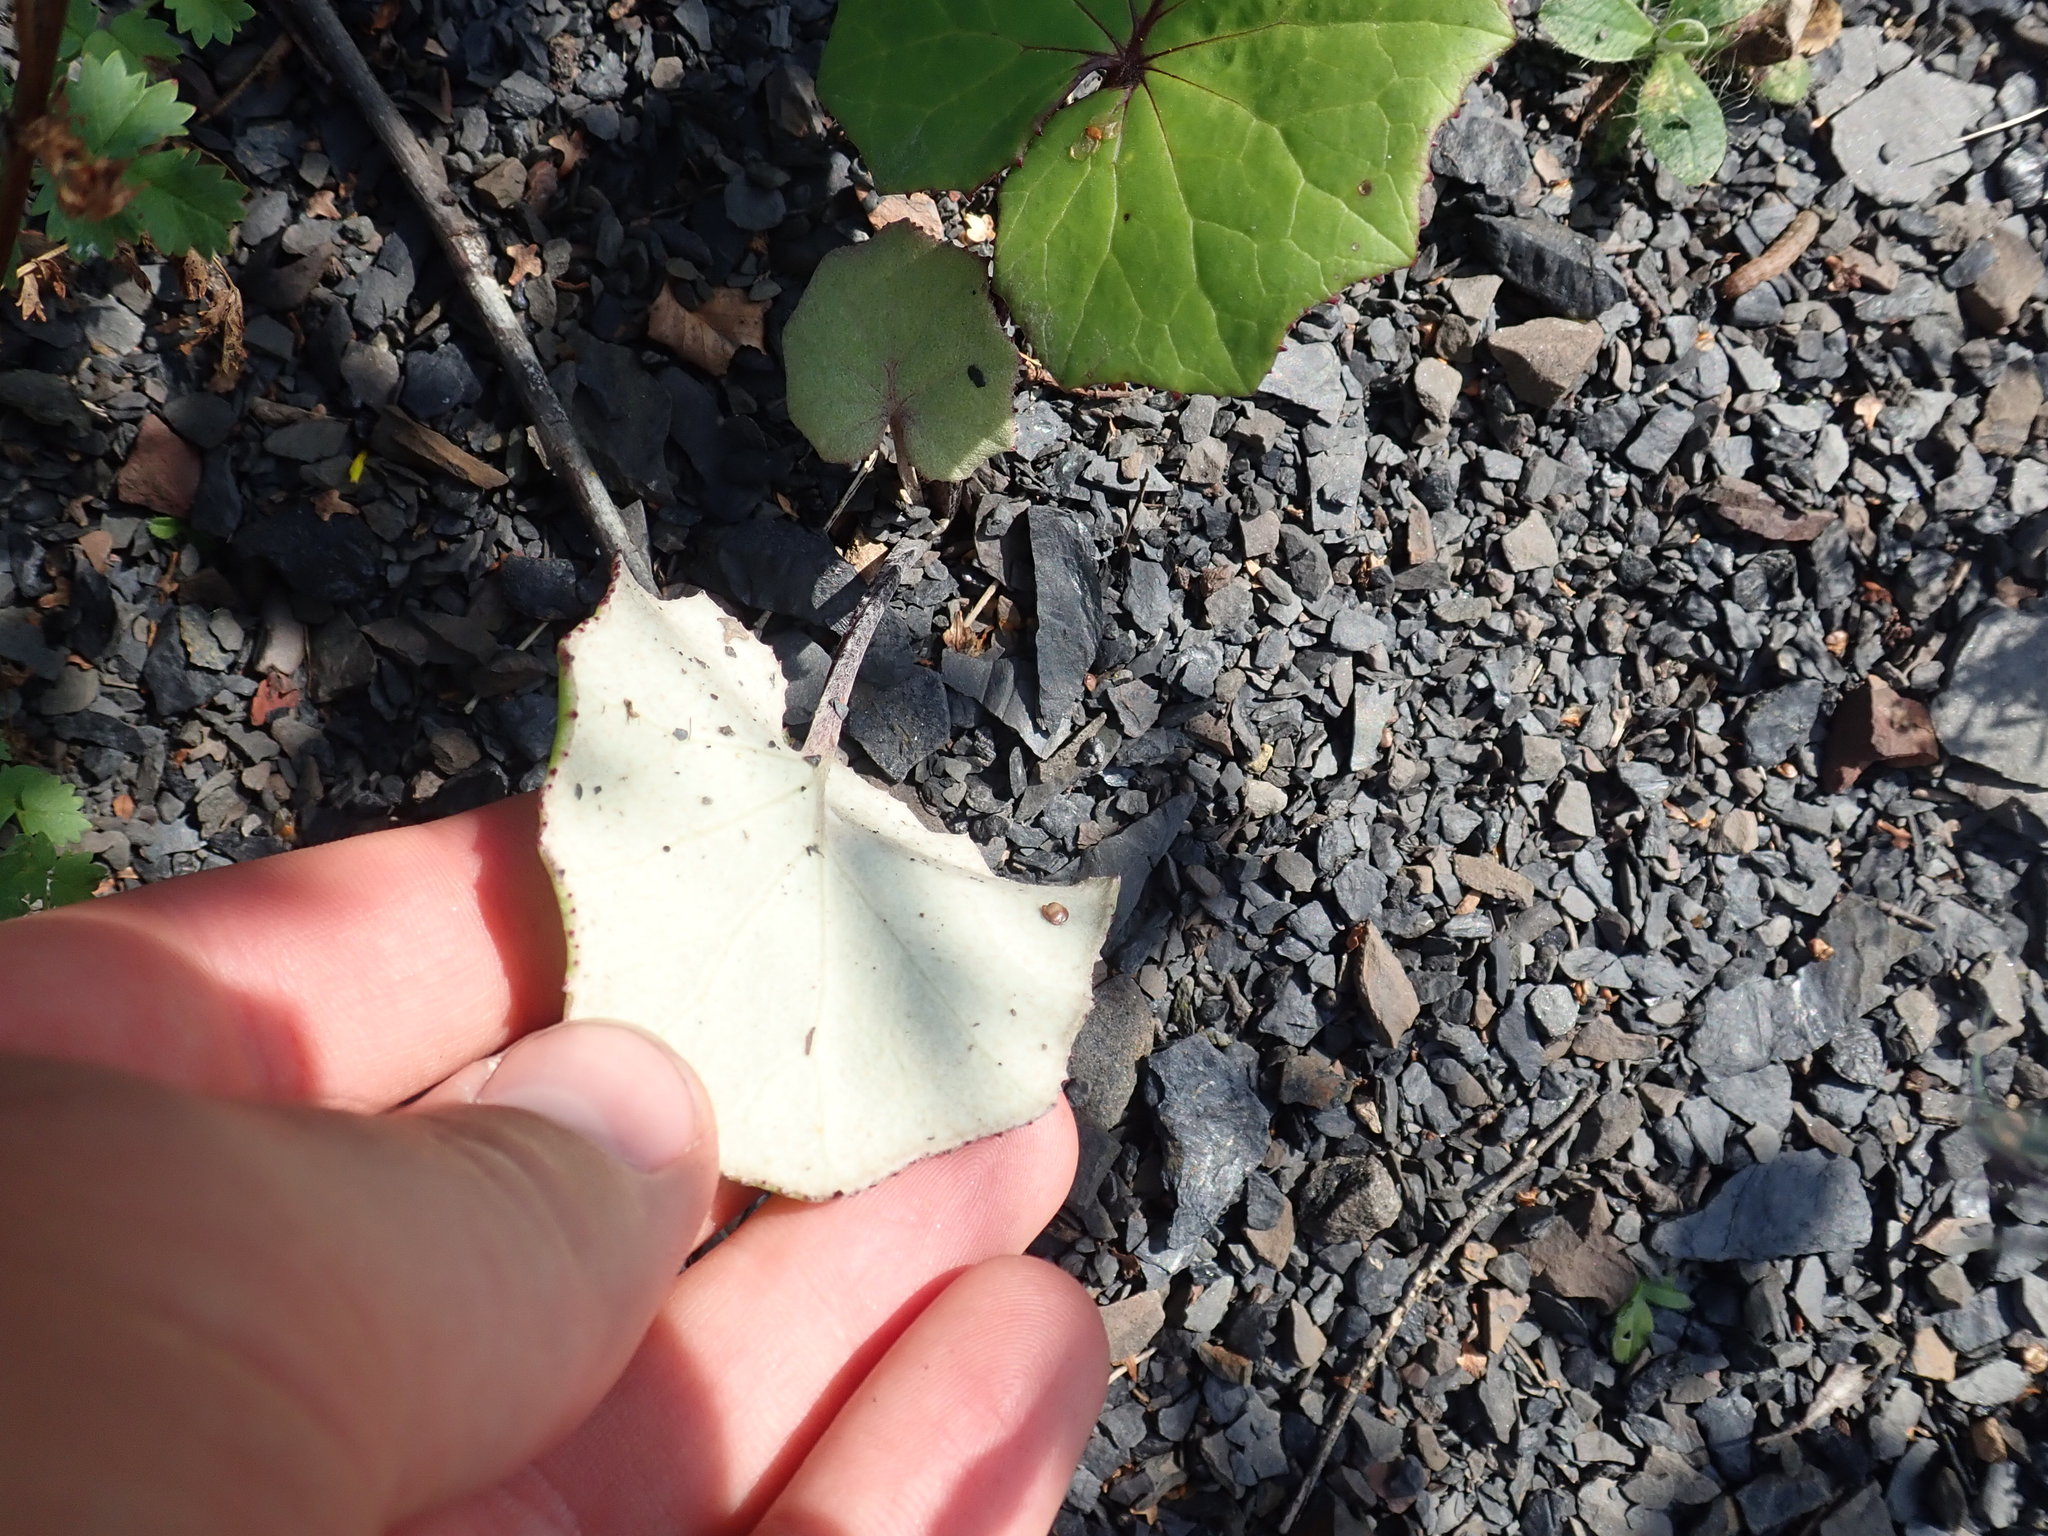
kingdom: Plantae
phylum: Tracheophyta
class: Magnoliopsida
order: Asterales
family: Asteraceae
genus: Tussilago
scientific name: Tussilago farfara
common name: Coltsfoot
